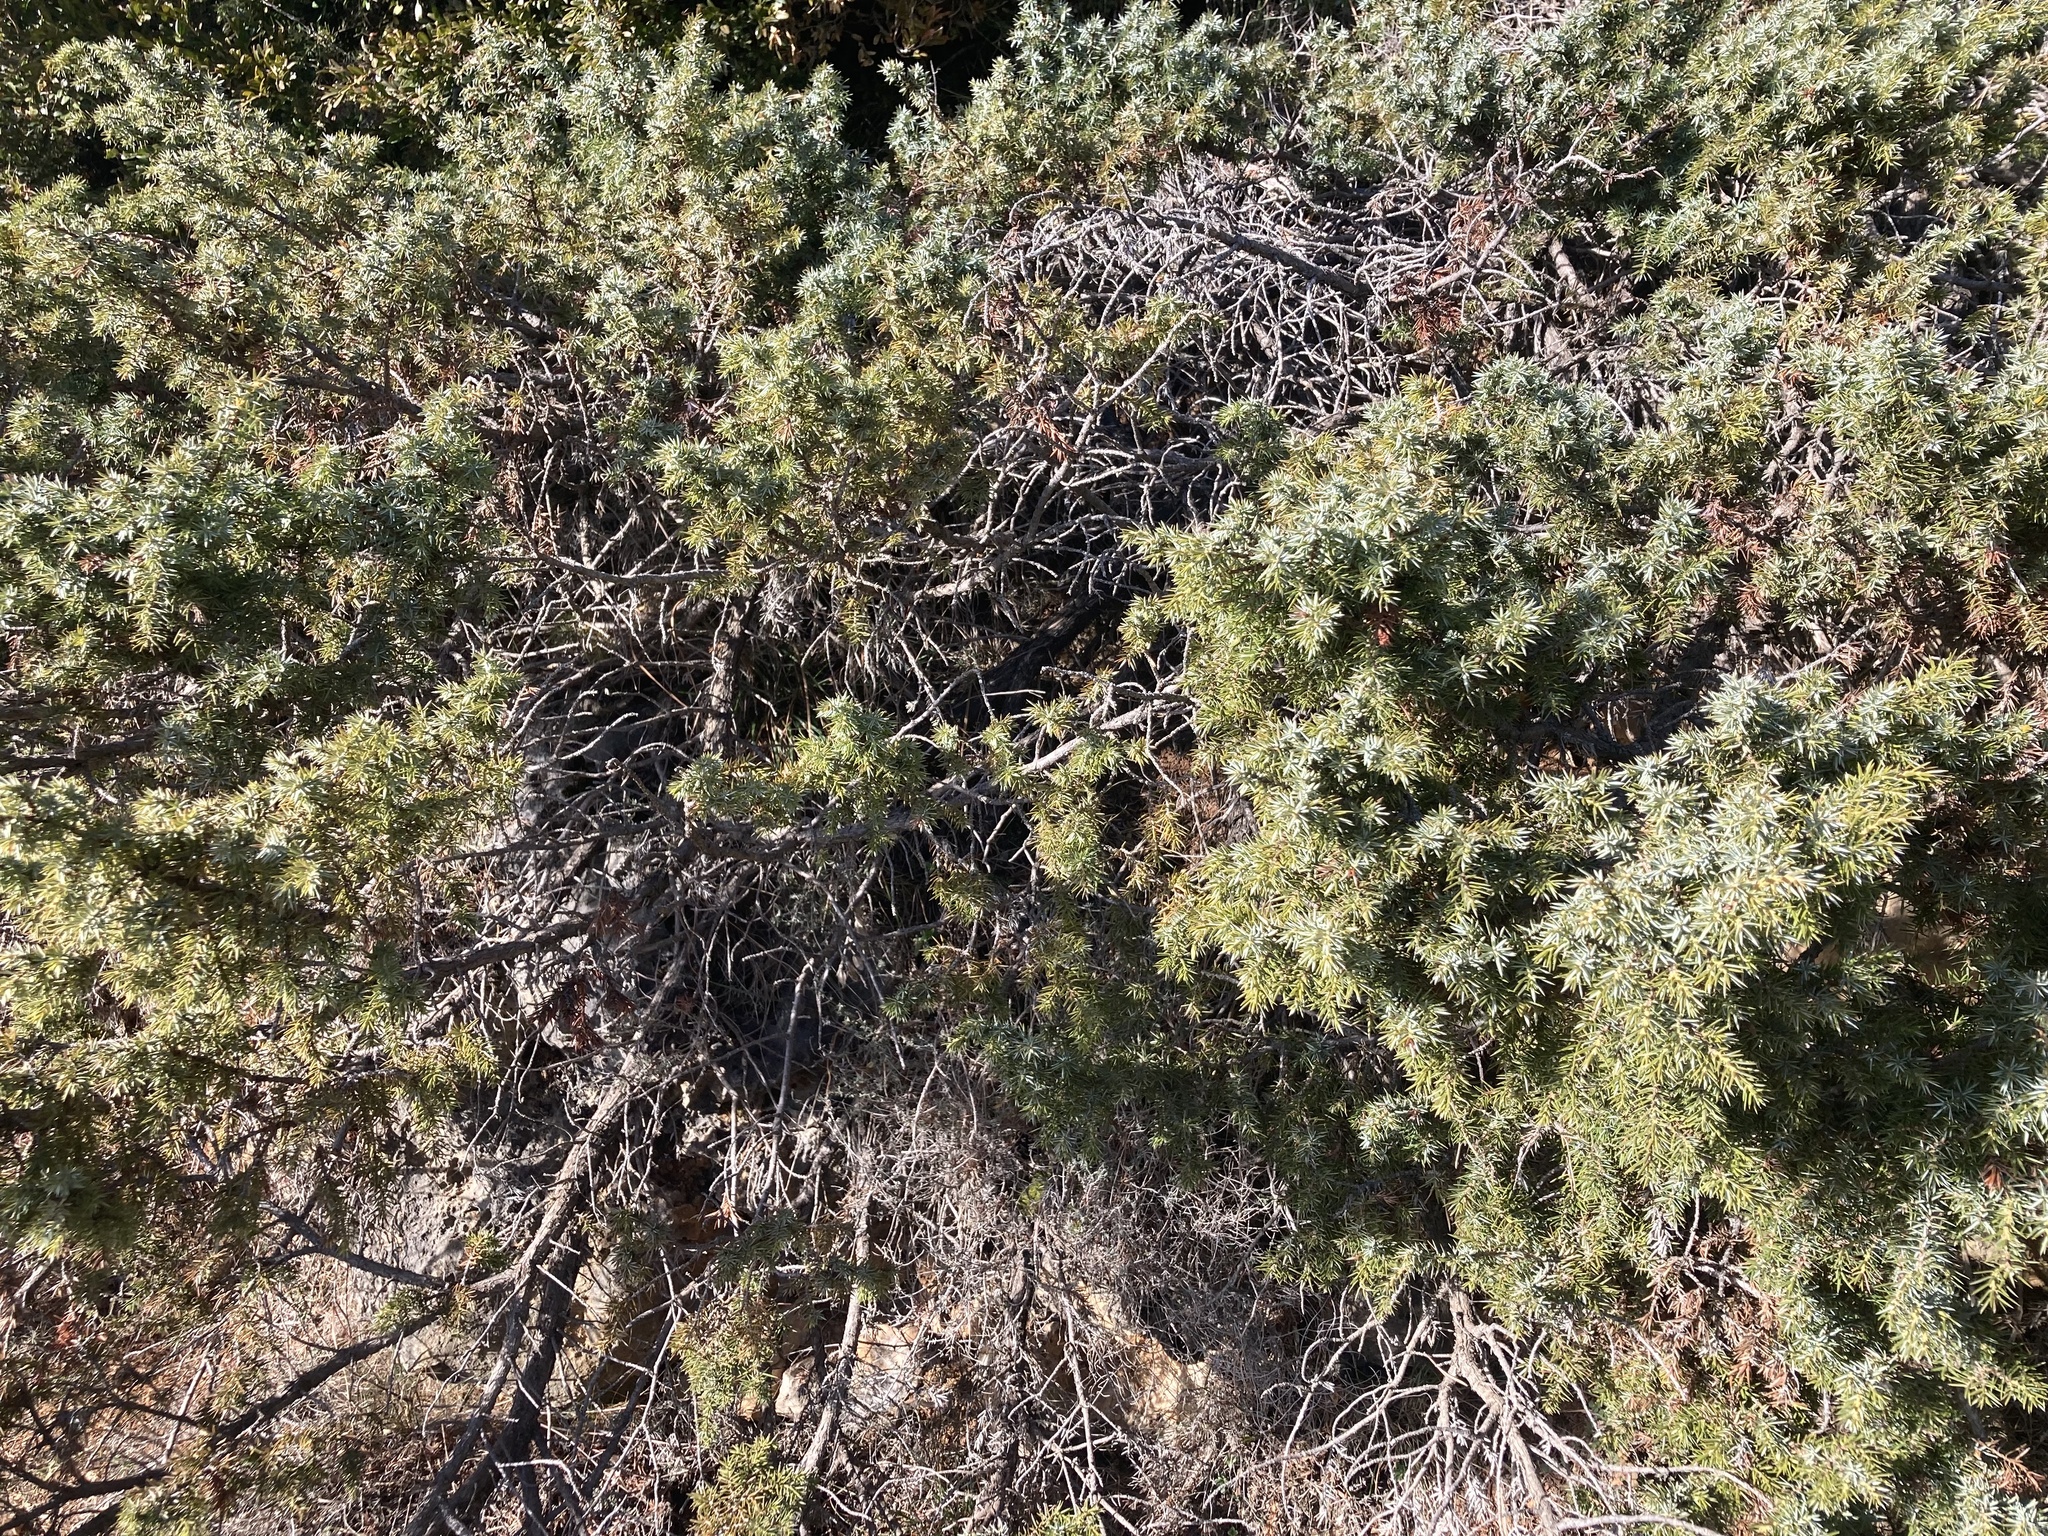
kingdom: Plantae
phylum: Tracheophyta
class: Pinopsida
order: Pinales
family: Cupressaceae
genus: Juniperus
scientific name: Juniperus communis
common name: Common juniper
